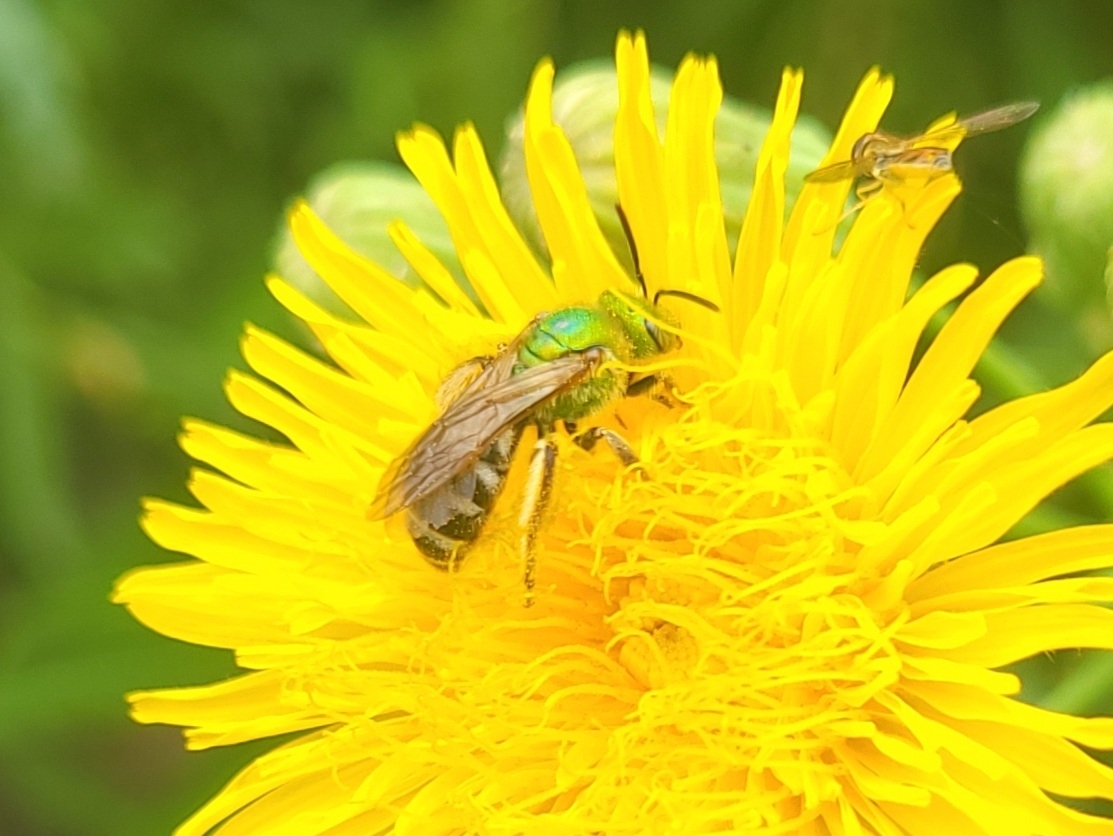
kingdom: Animalia
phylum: Arthropoda
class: Insecta
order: Hymenoptera
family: Halictidae
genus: Agapostemon
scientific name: Agapostemon virescens
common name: Bicolored striped sweat bee
